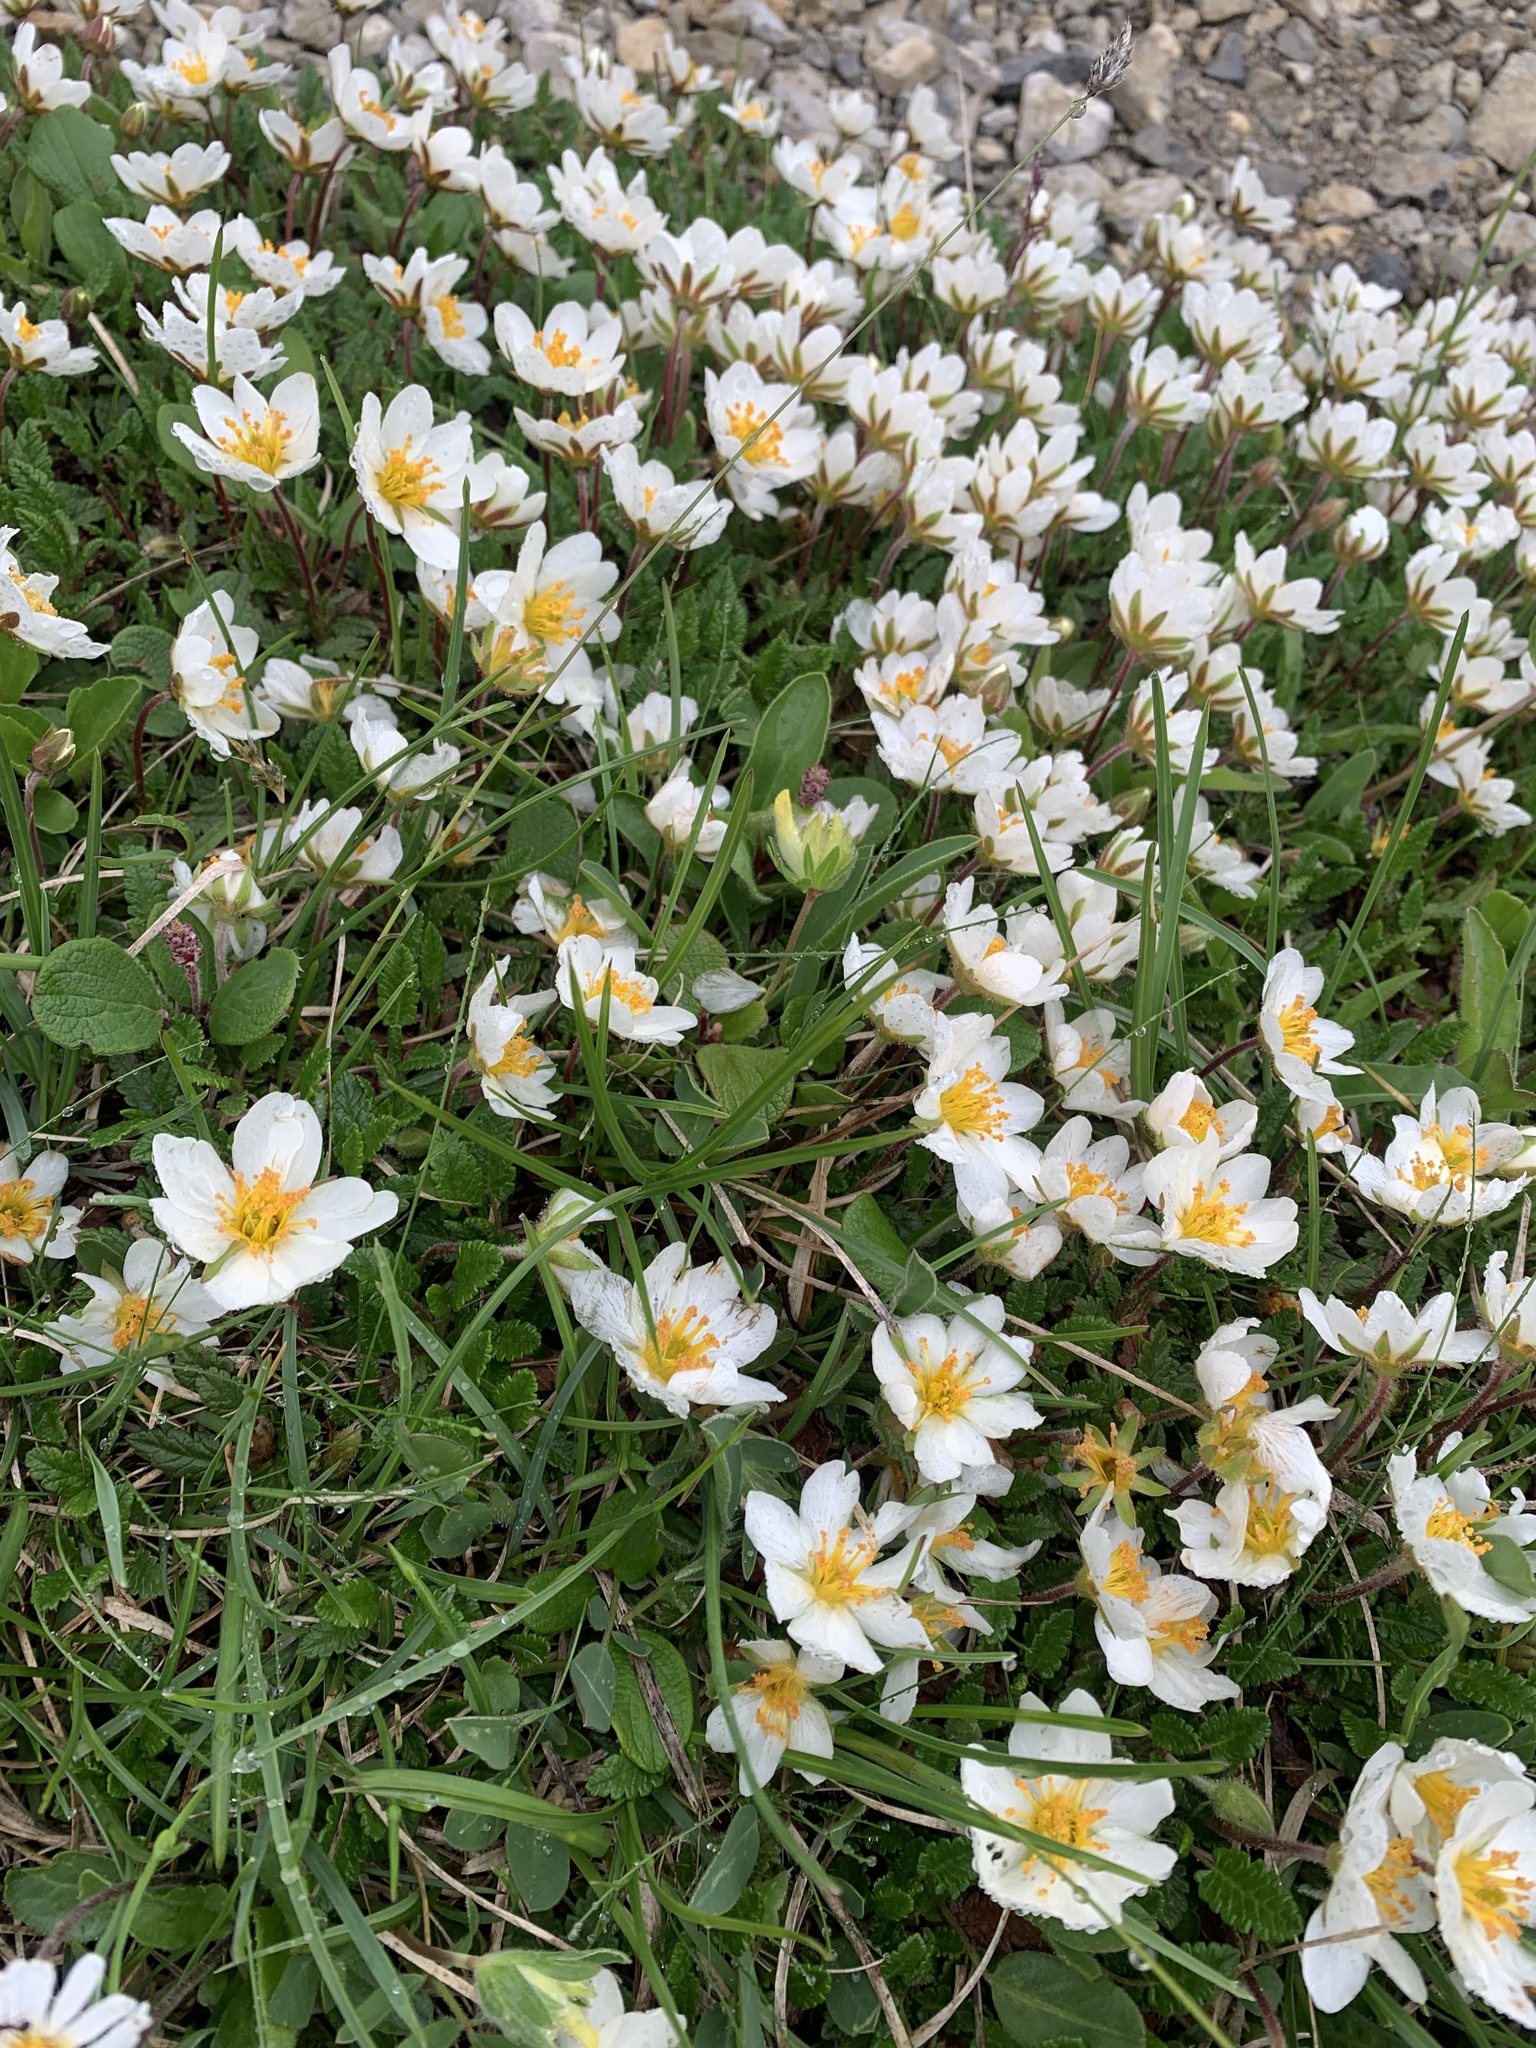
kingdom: Plantae
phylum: Tracheophyta
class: Magnoliopsida
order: Rosales
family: Rosaceae
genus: Dryas
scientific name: Dryas octopetala
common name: Eight-petal mountain-avens
